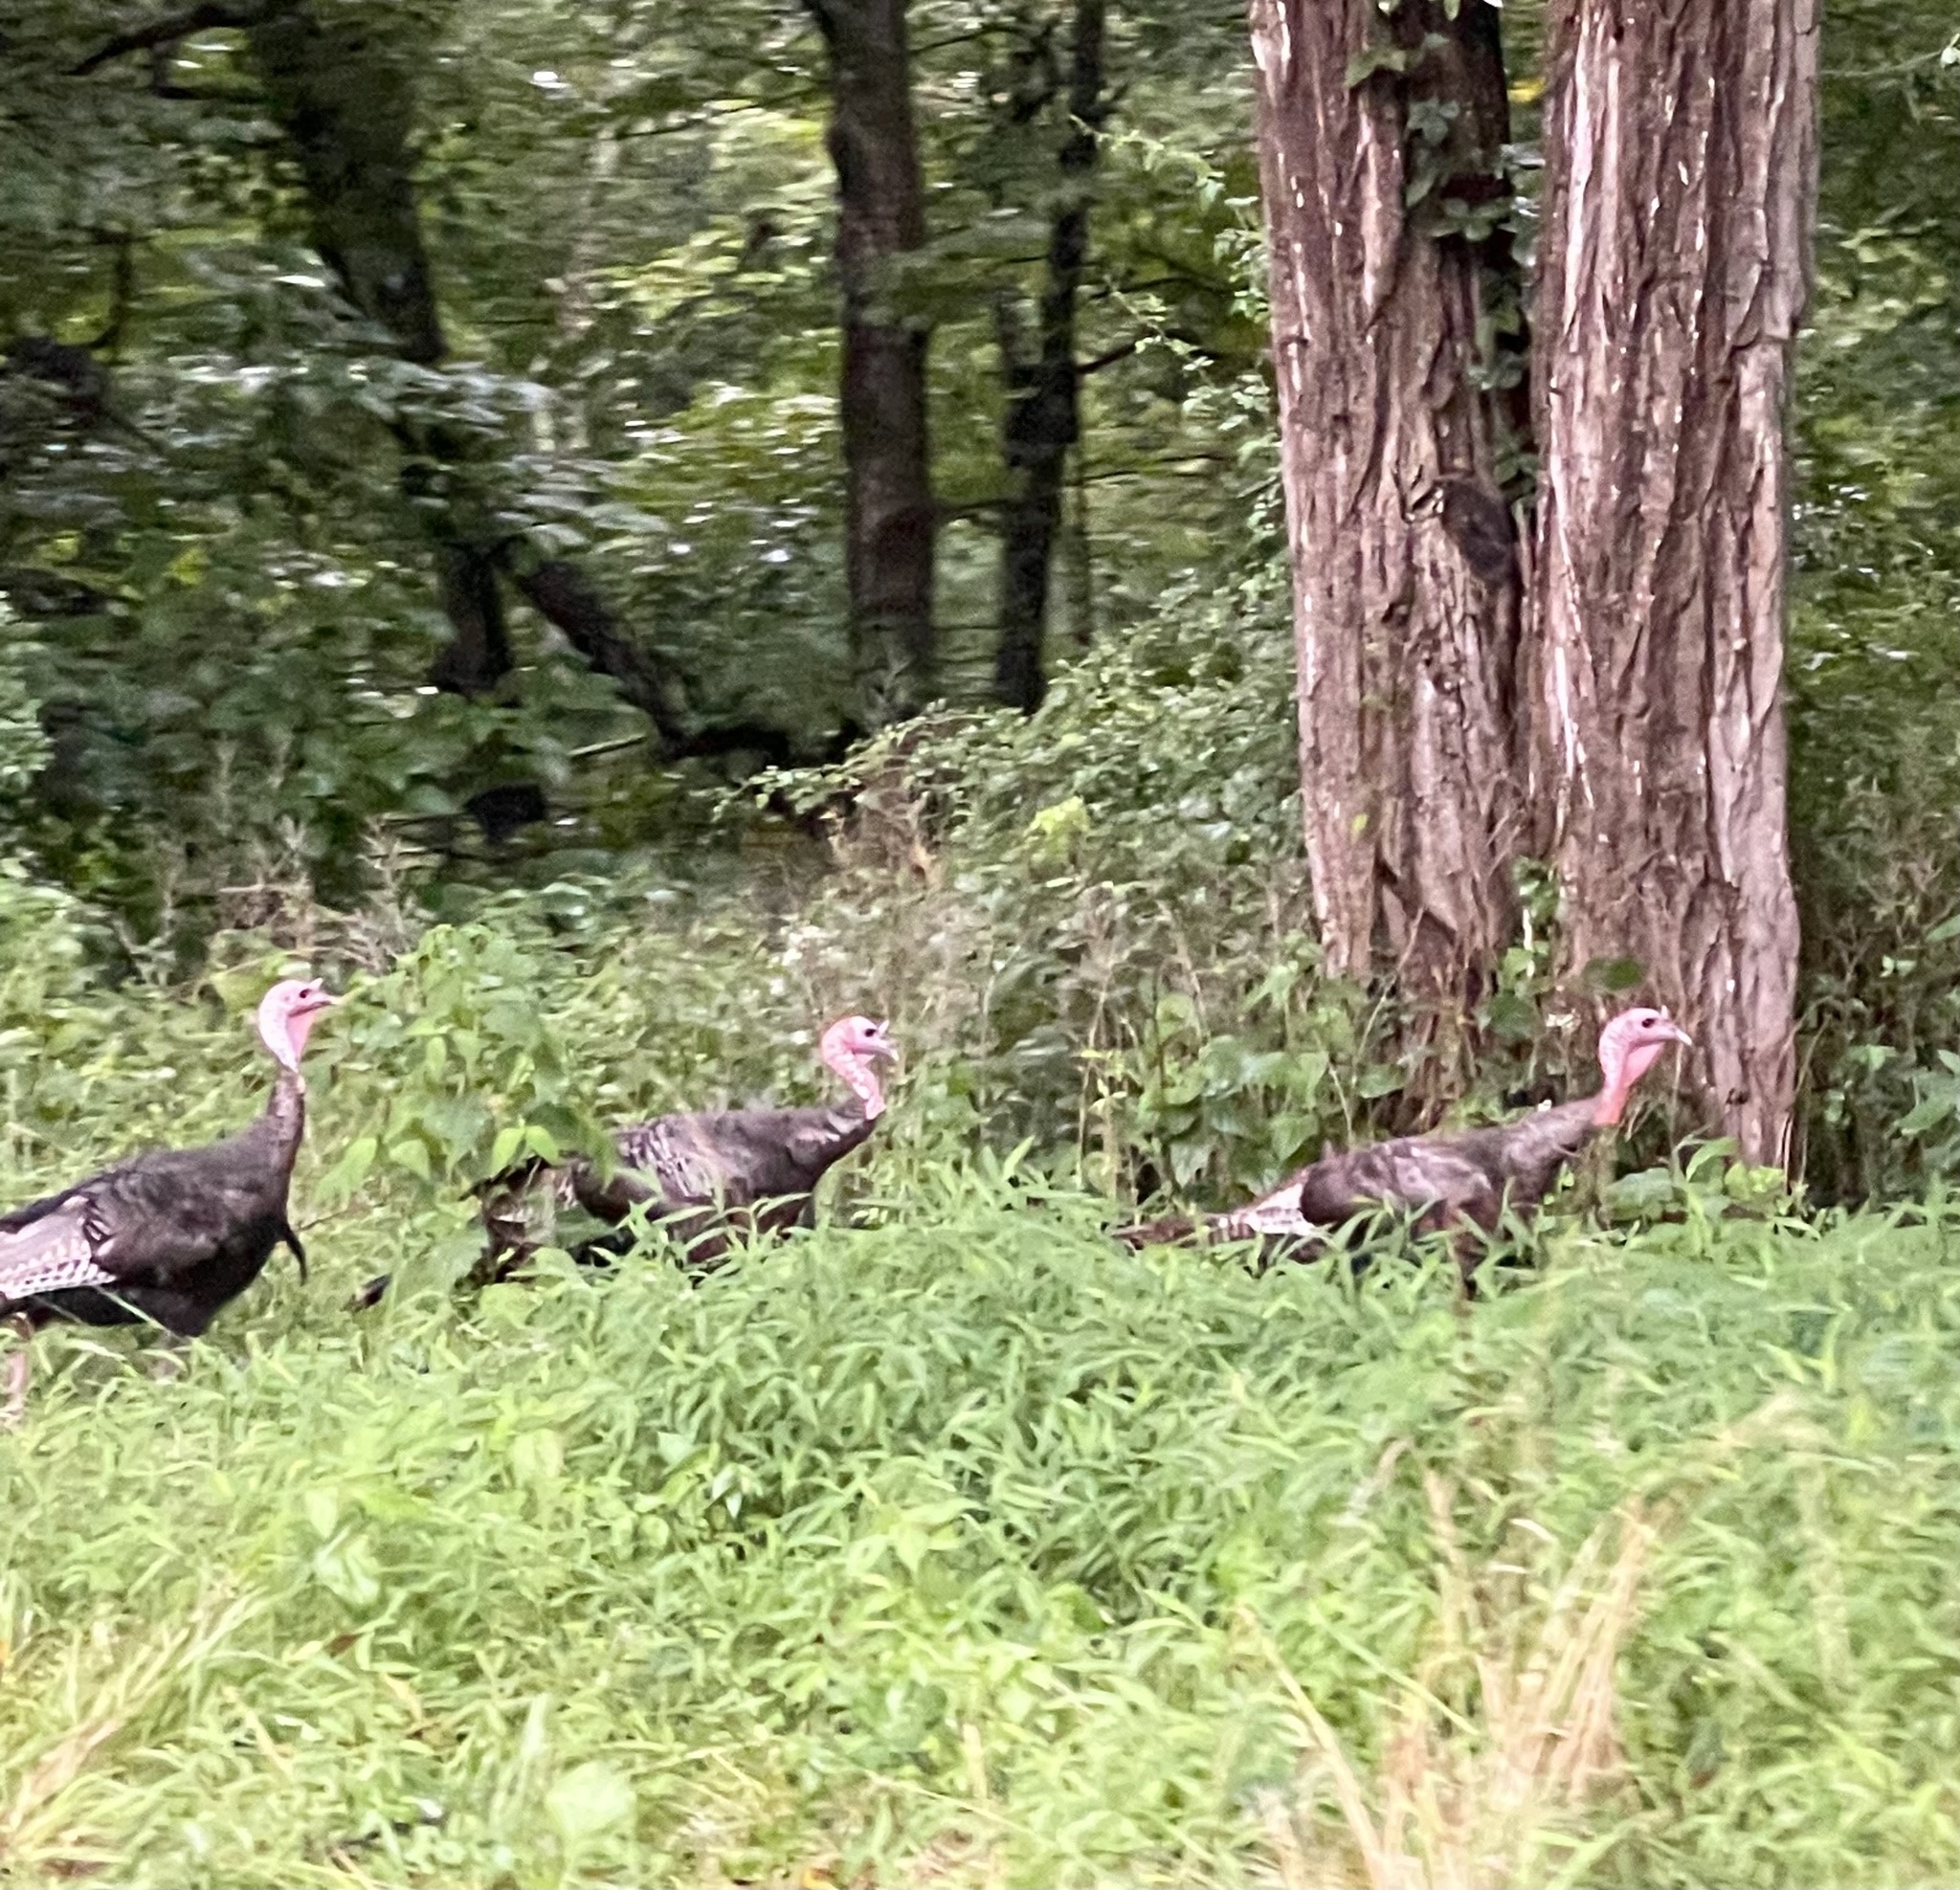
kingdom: Animalia
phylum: Chordata
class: Aves
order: Galliformes
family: Phasianidae
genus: Meleagris
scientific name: Meleagris gallopavo
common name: Wild turkey
